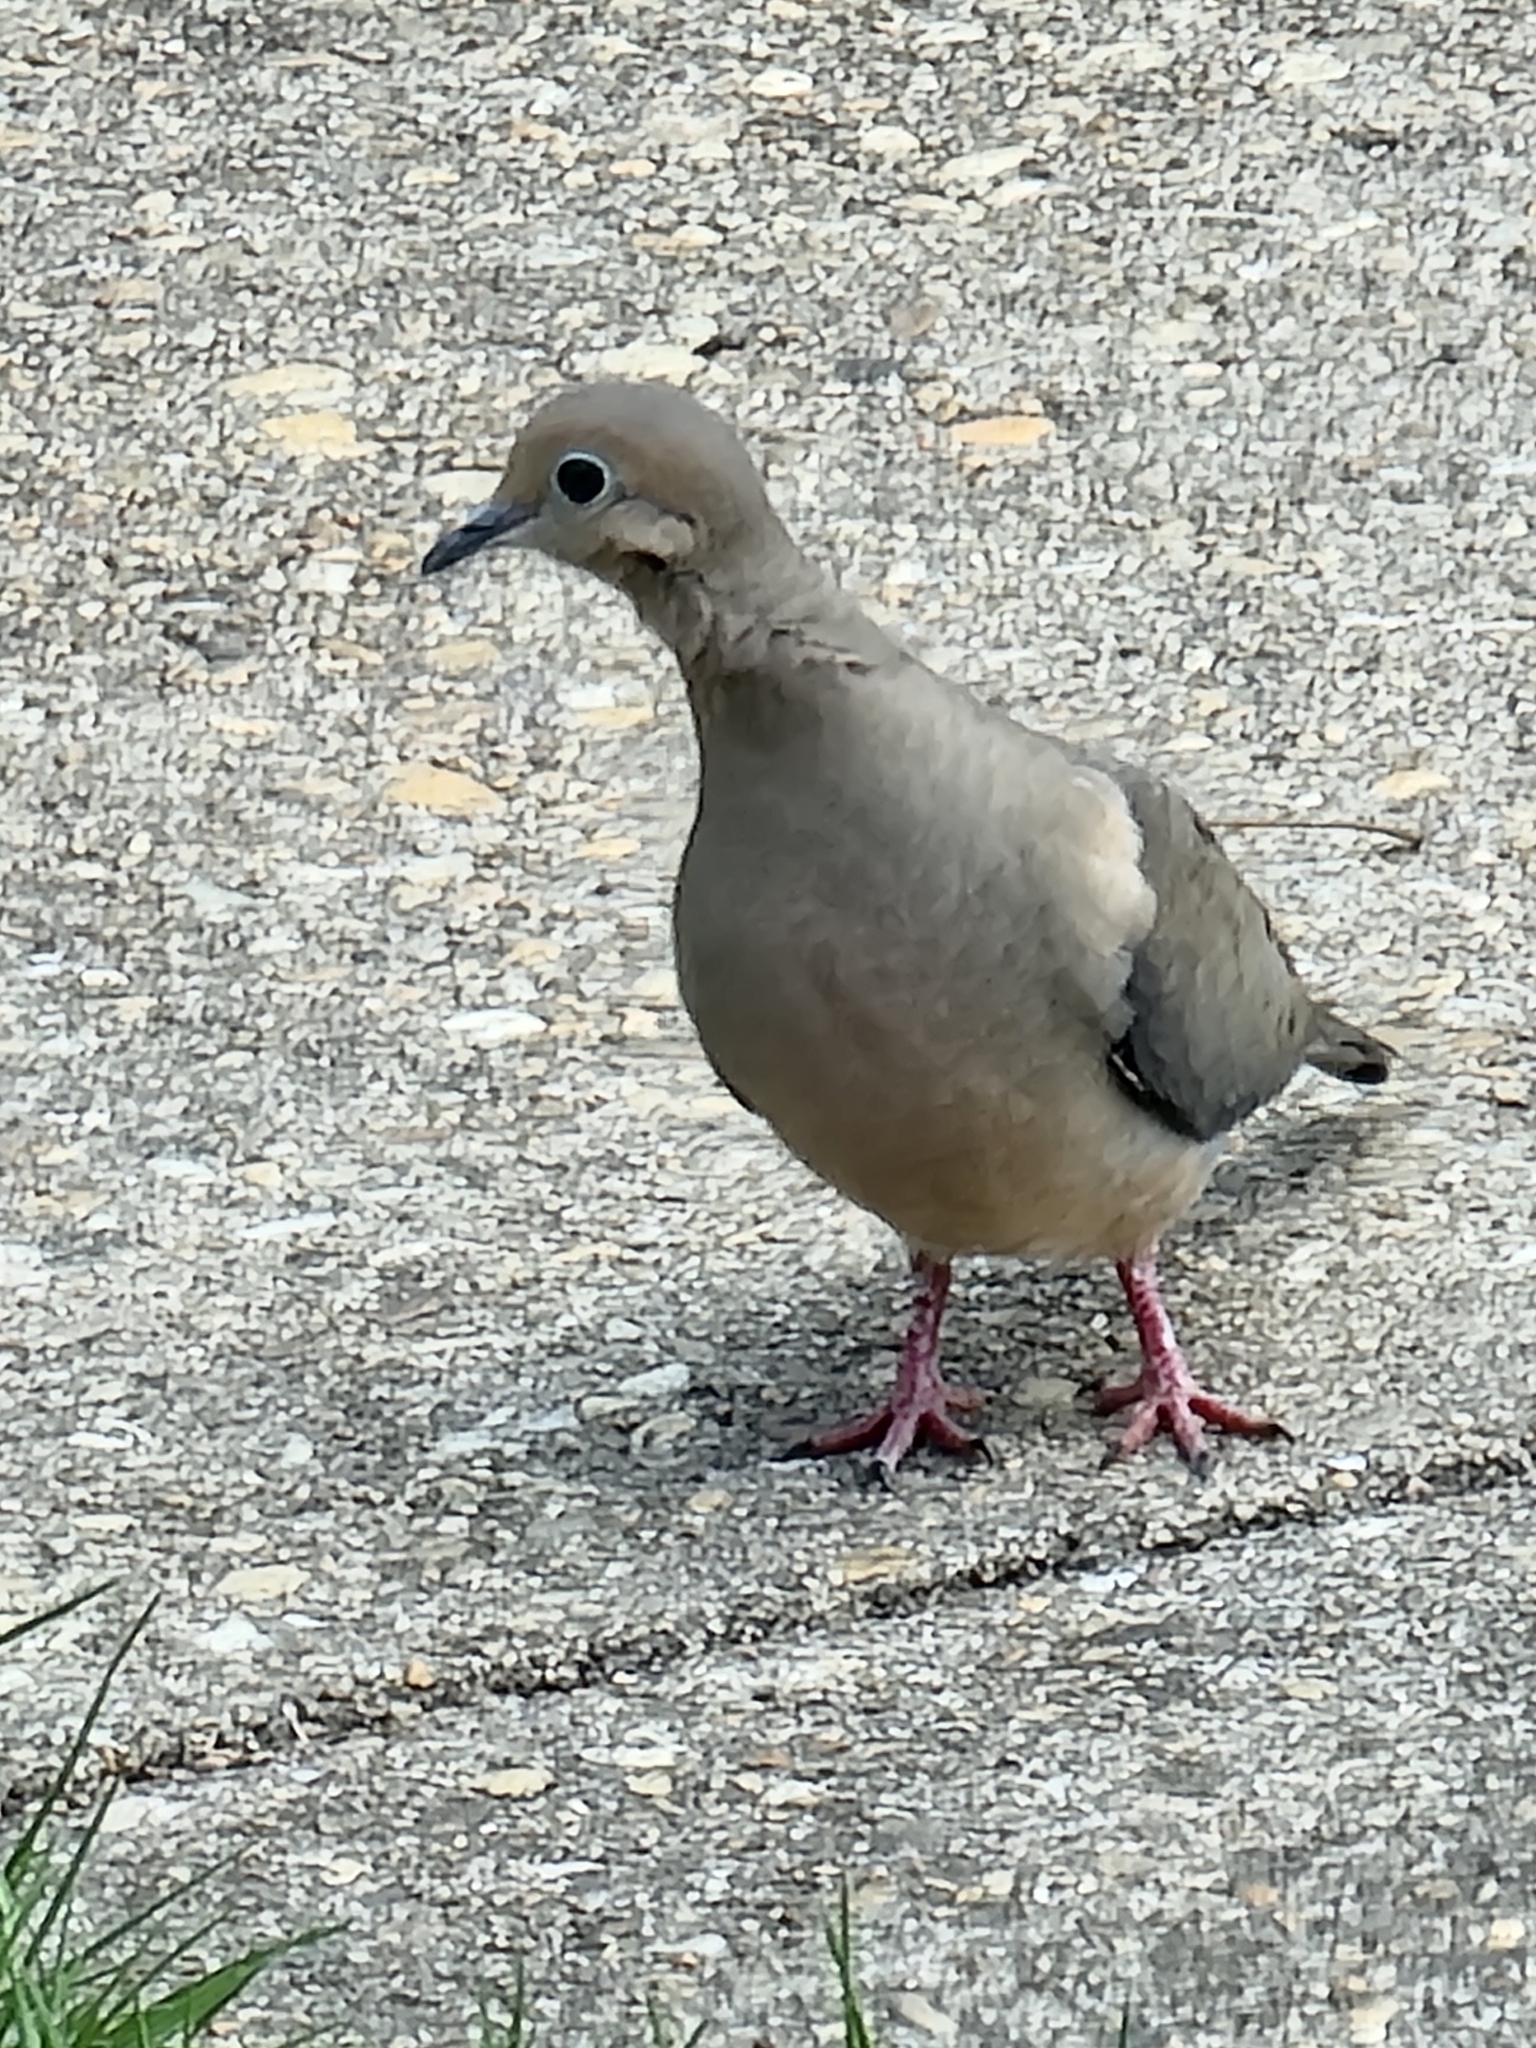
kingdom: Animalia
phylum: Chordata
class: Aves
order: Columbiformes
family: Columbidae
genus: Zenaida
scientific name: Zenaida macroura
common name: Mourning dove
